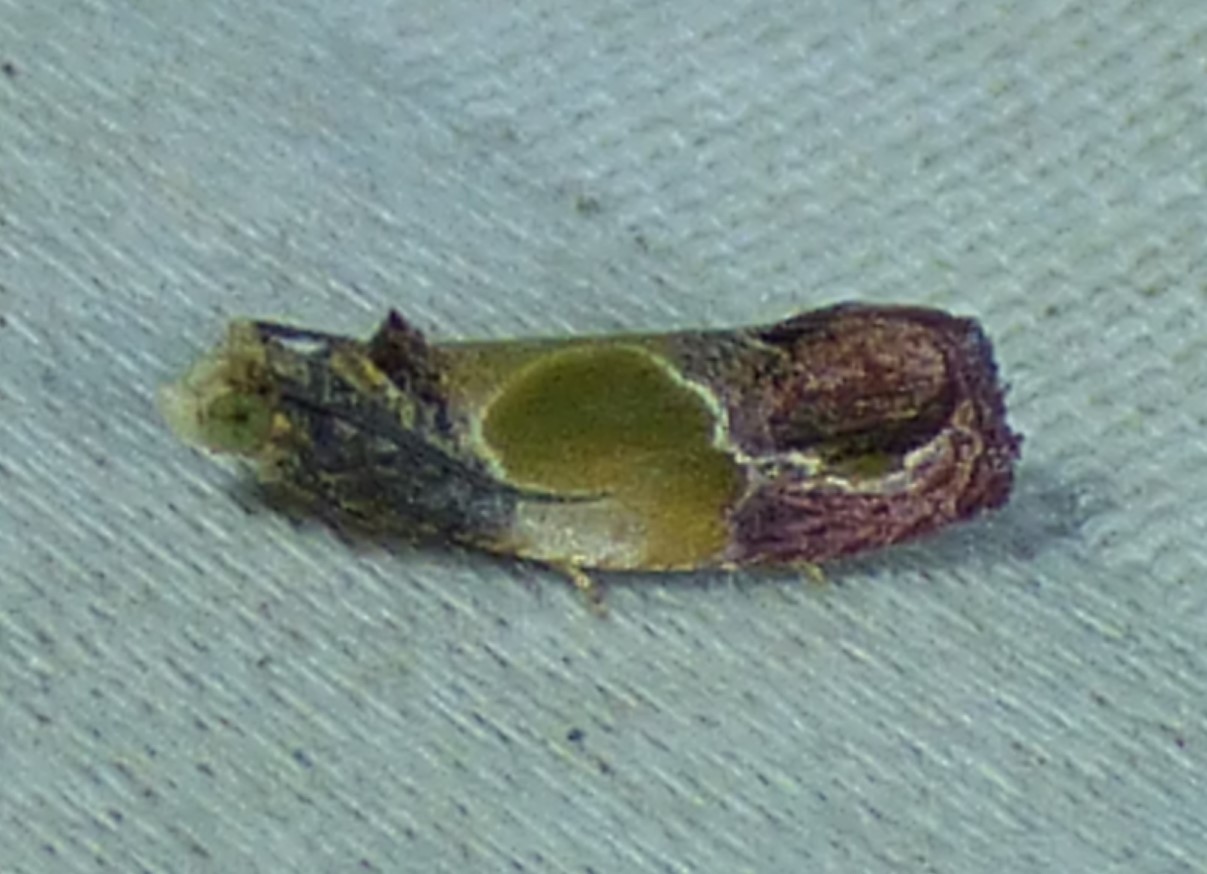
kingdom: Animalia
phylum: Arthropoda
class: Insecta
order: Lepidoptera
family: Tortricidae
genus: Eumarozia
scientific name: Eumarozia malachitana
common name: Sculptured moth
